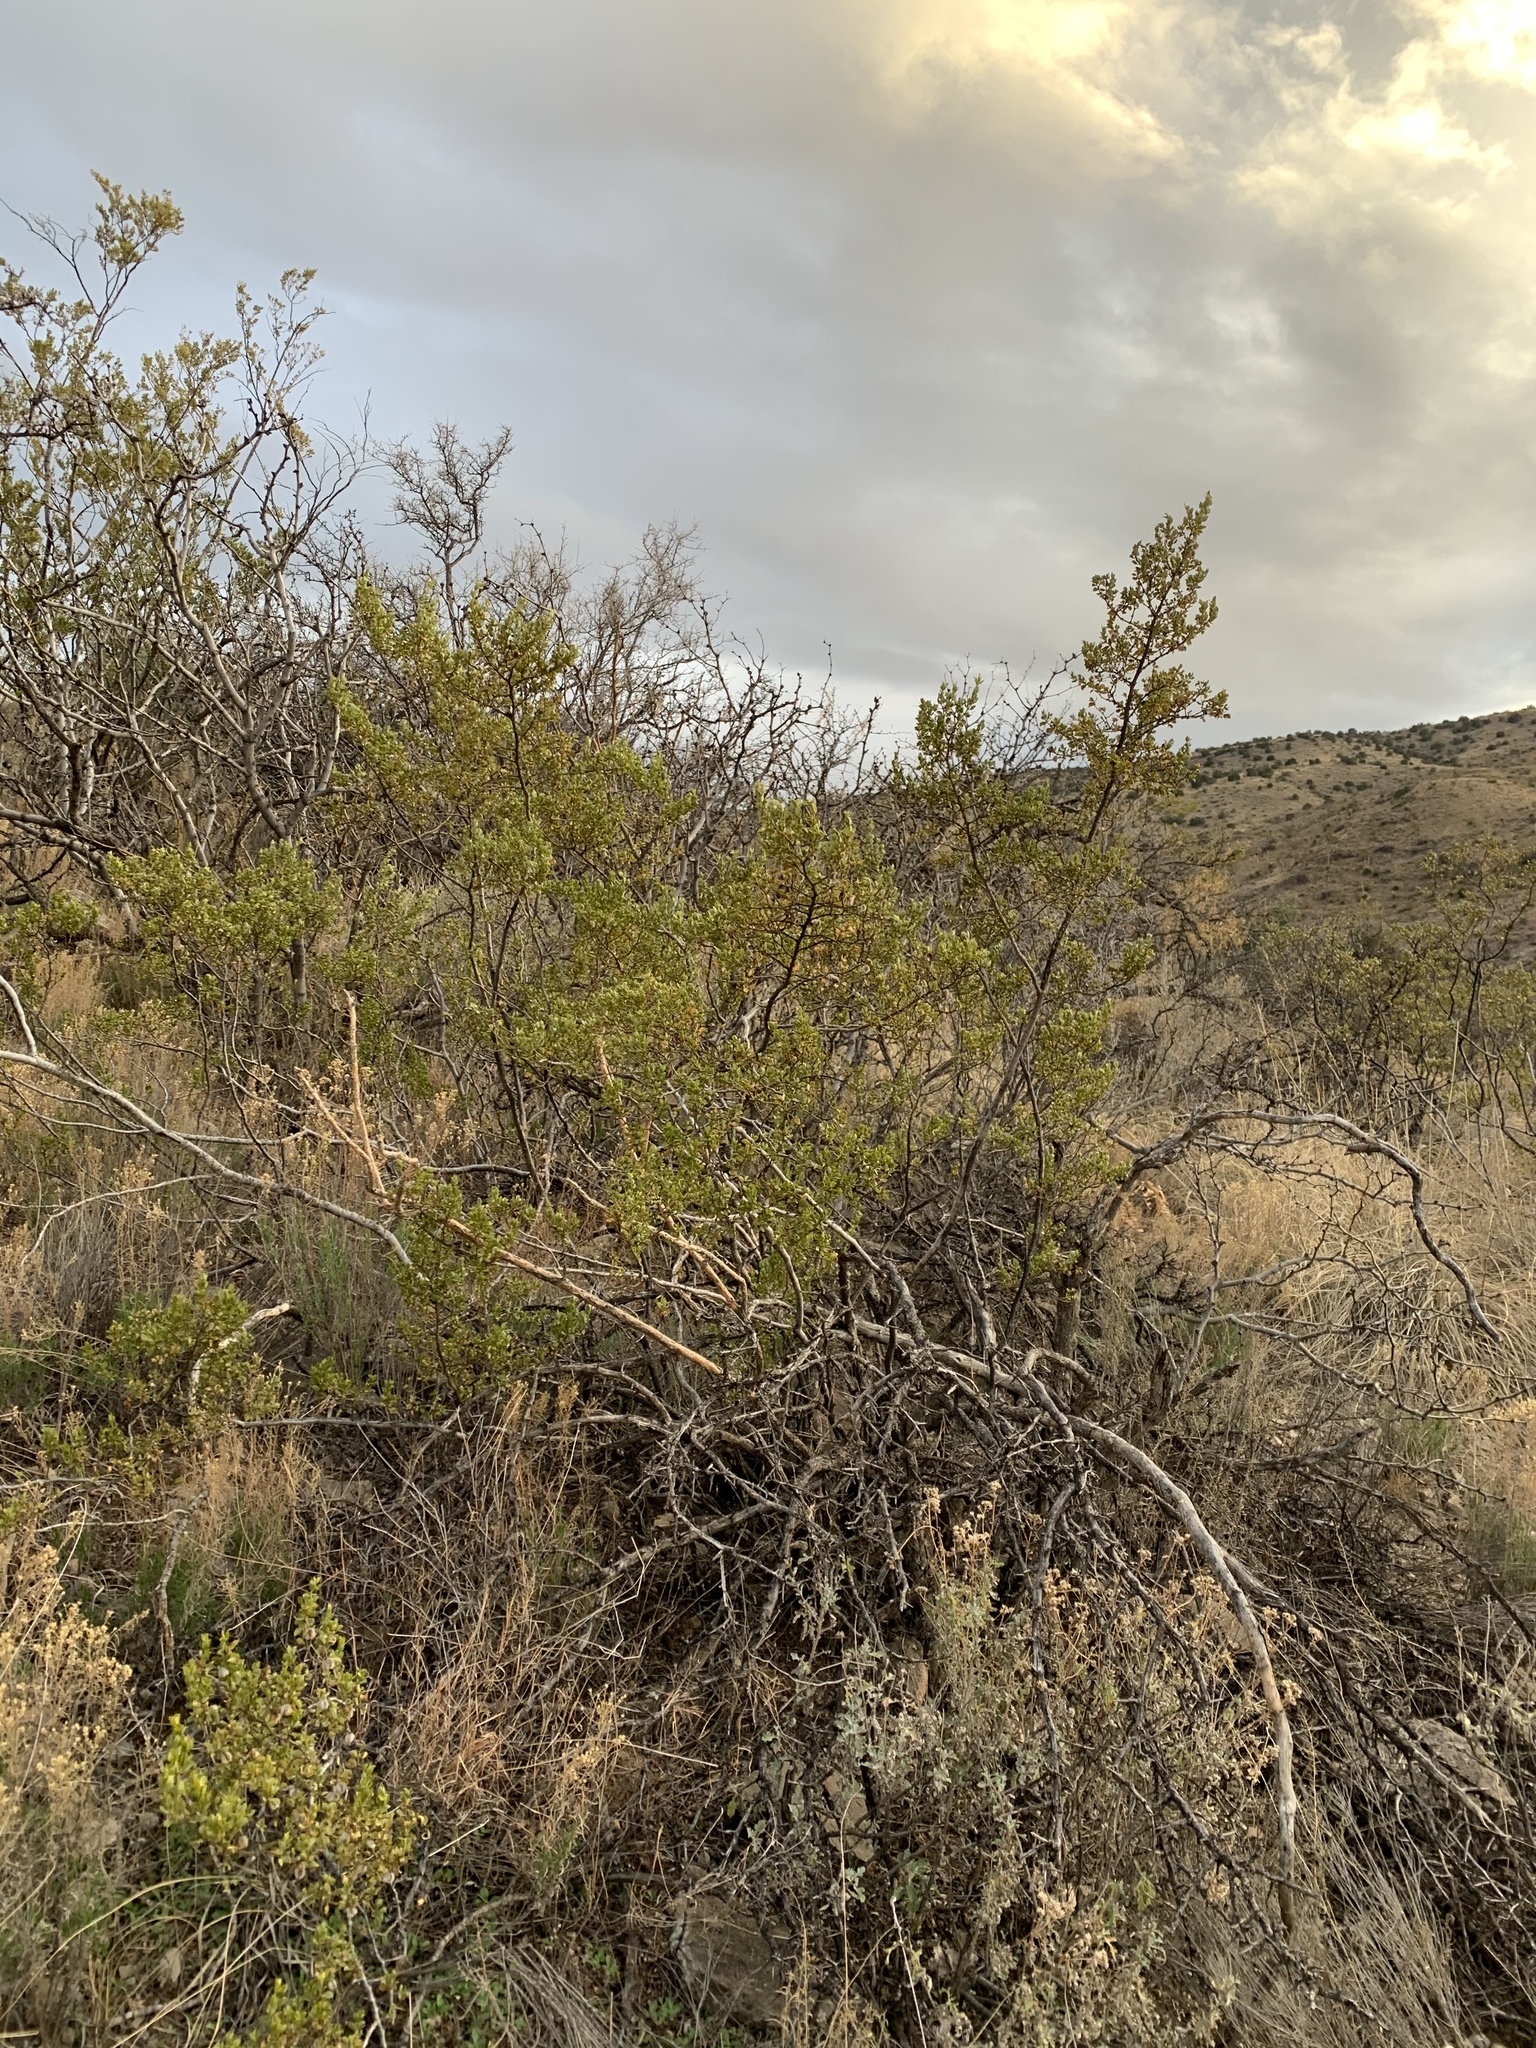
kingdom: Plantae
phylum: Tracheophyta
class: Magnoliopsida
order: Zygophyllales
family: Zygophyllaceae
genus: Larrea
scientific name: Larrea tridentata
